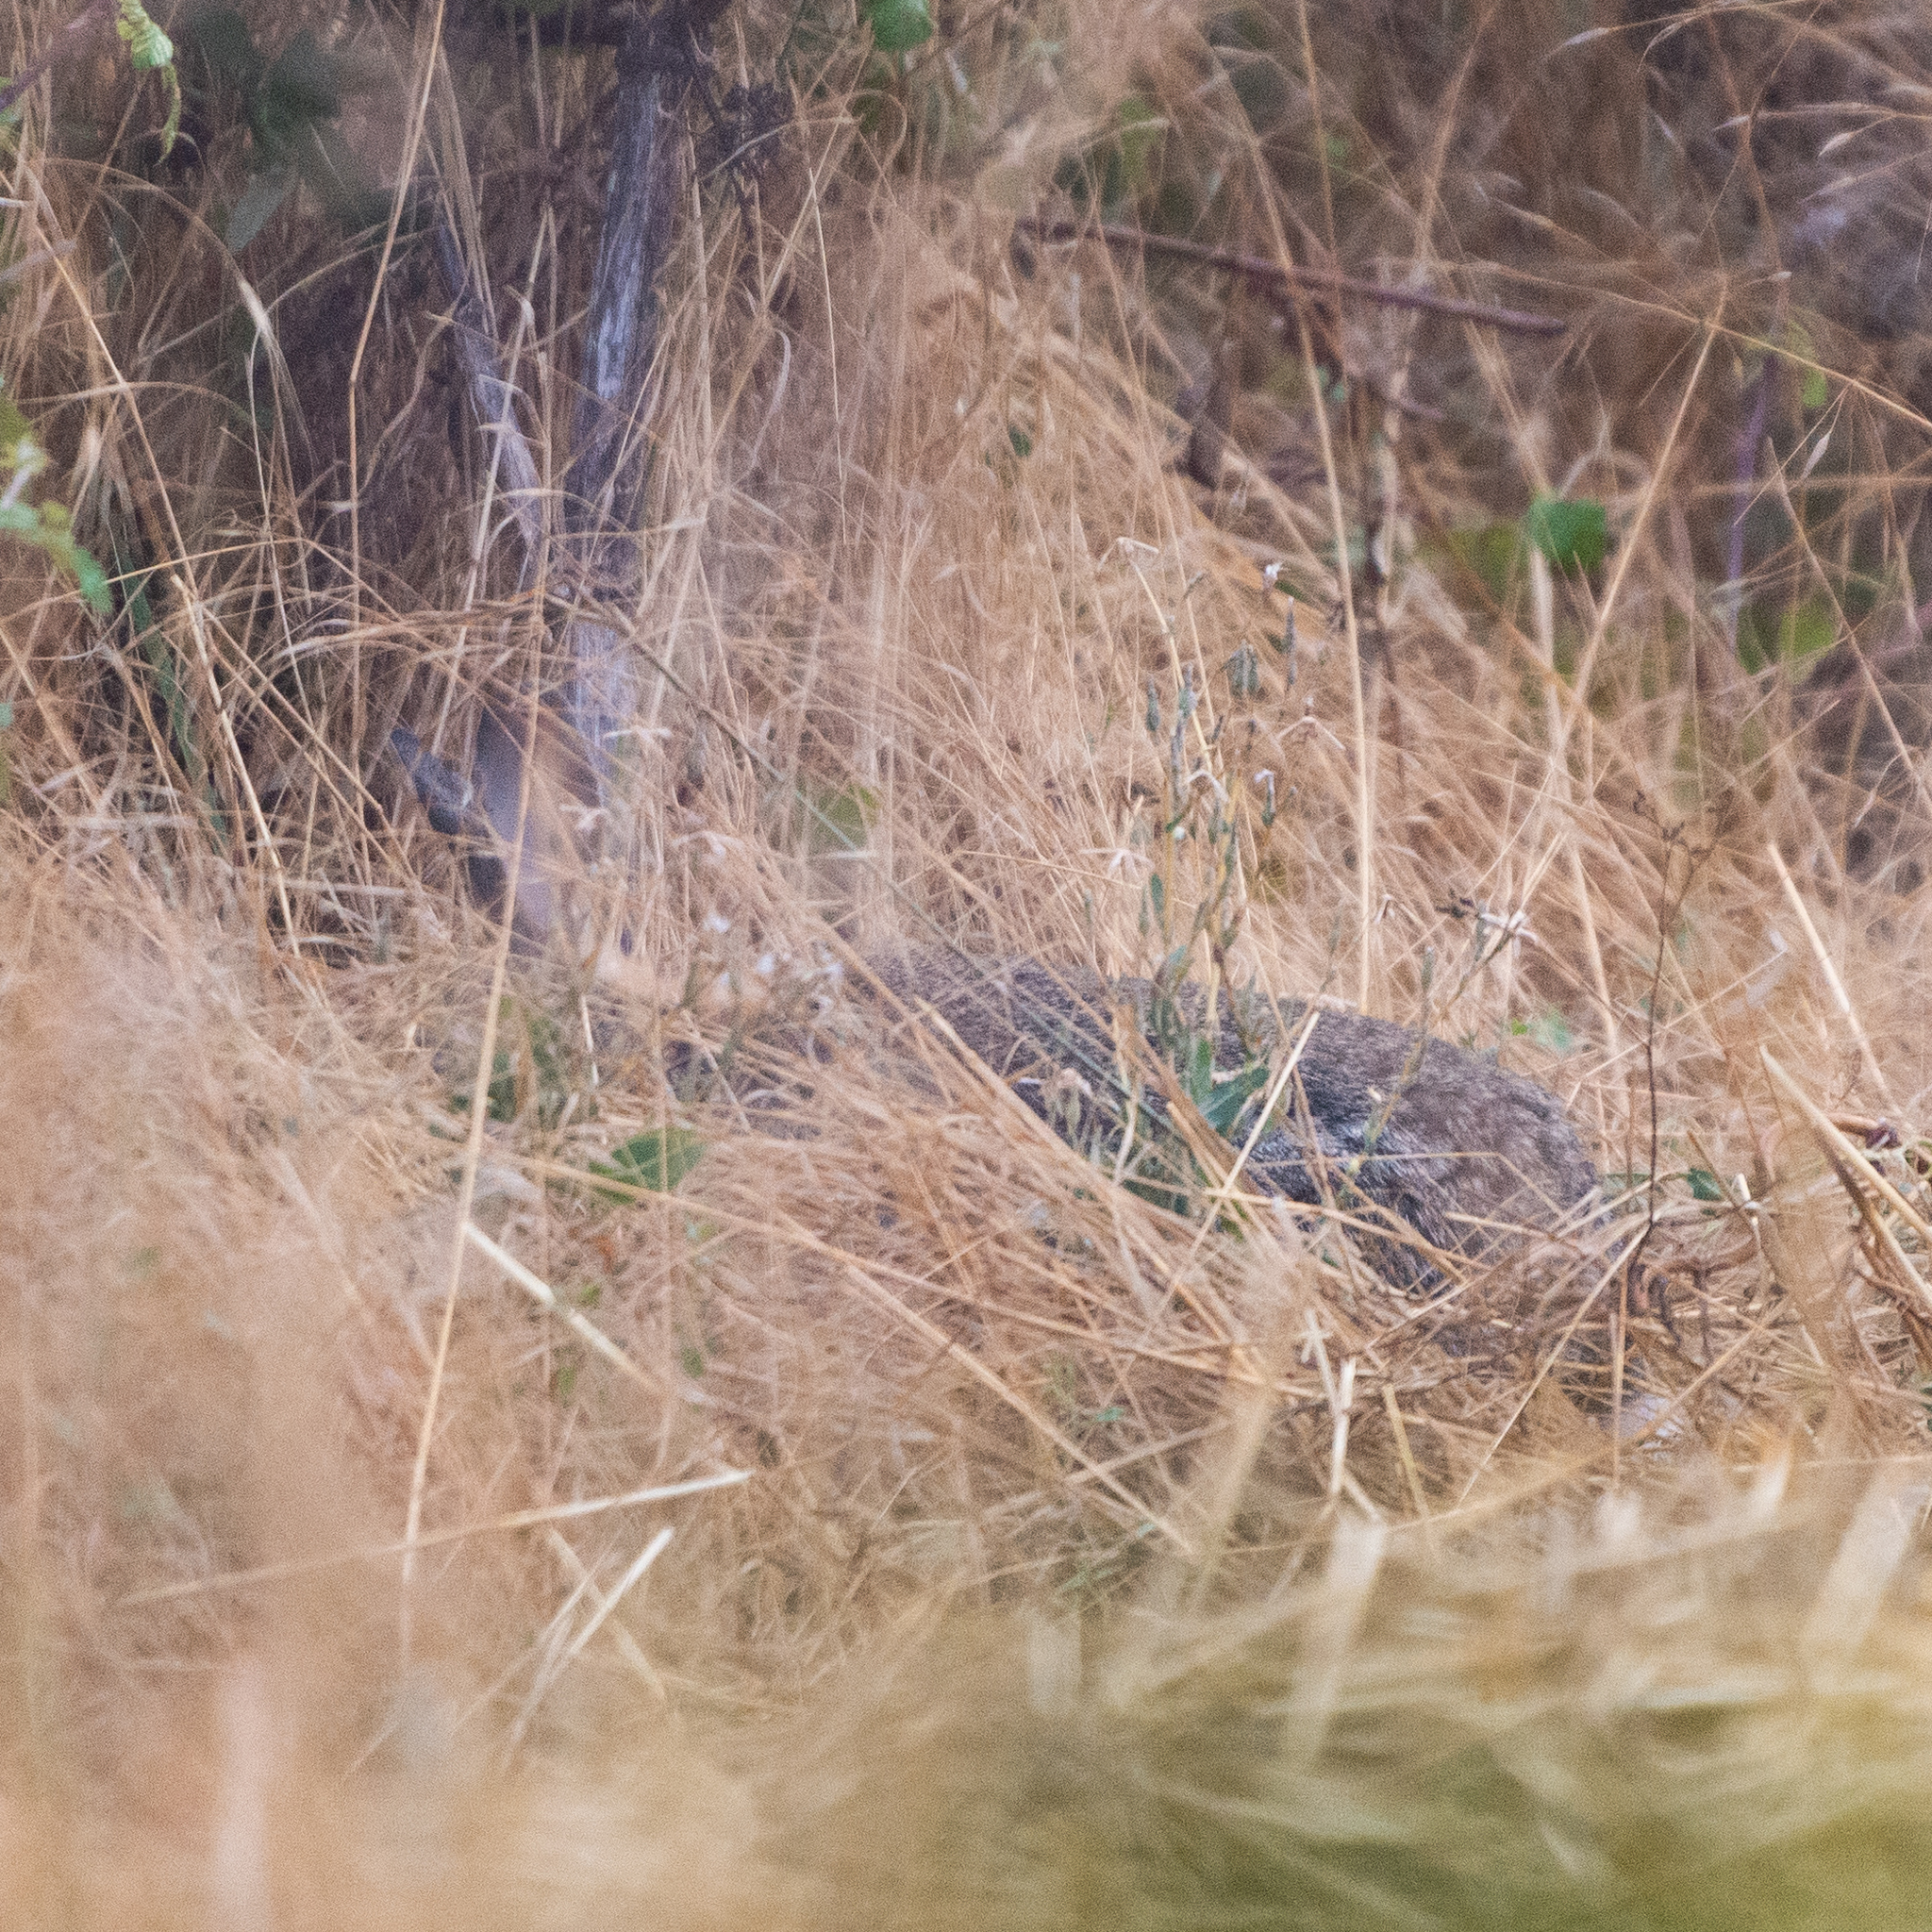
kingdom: Animalia
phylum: Chordata
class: Mammalia
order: Lagomorpha
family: Leporidae
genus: Oryctolagus
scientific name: Oryctolagus cuniculus
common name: European rabbit
